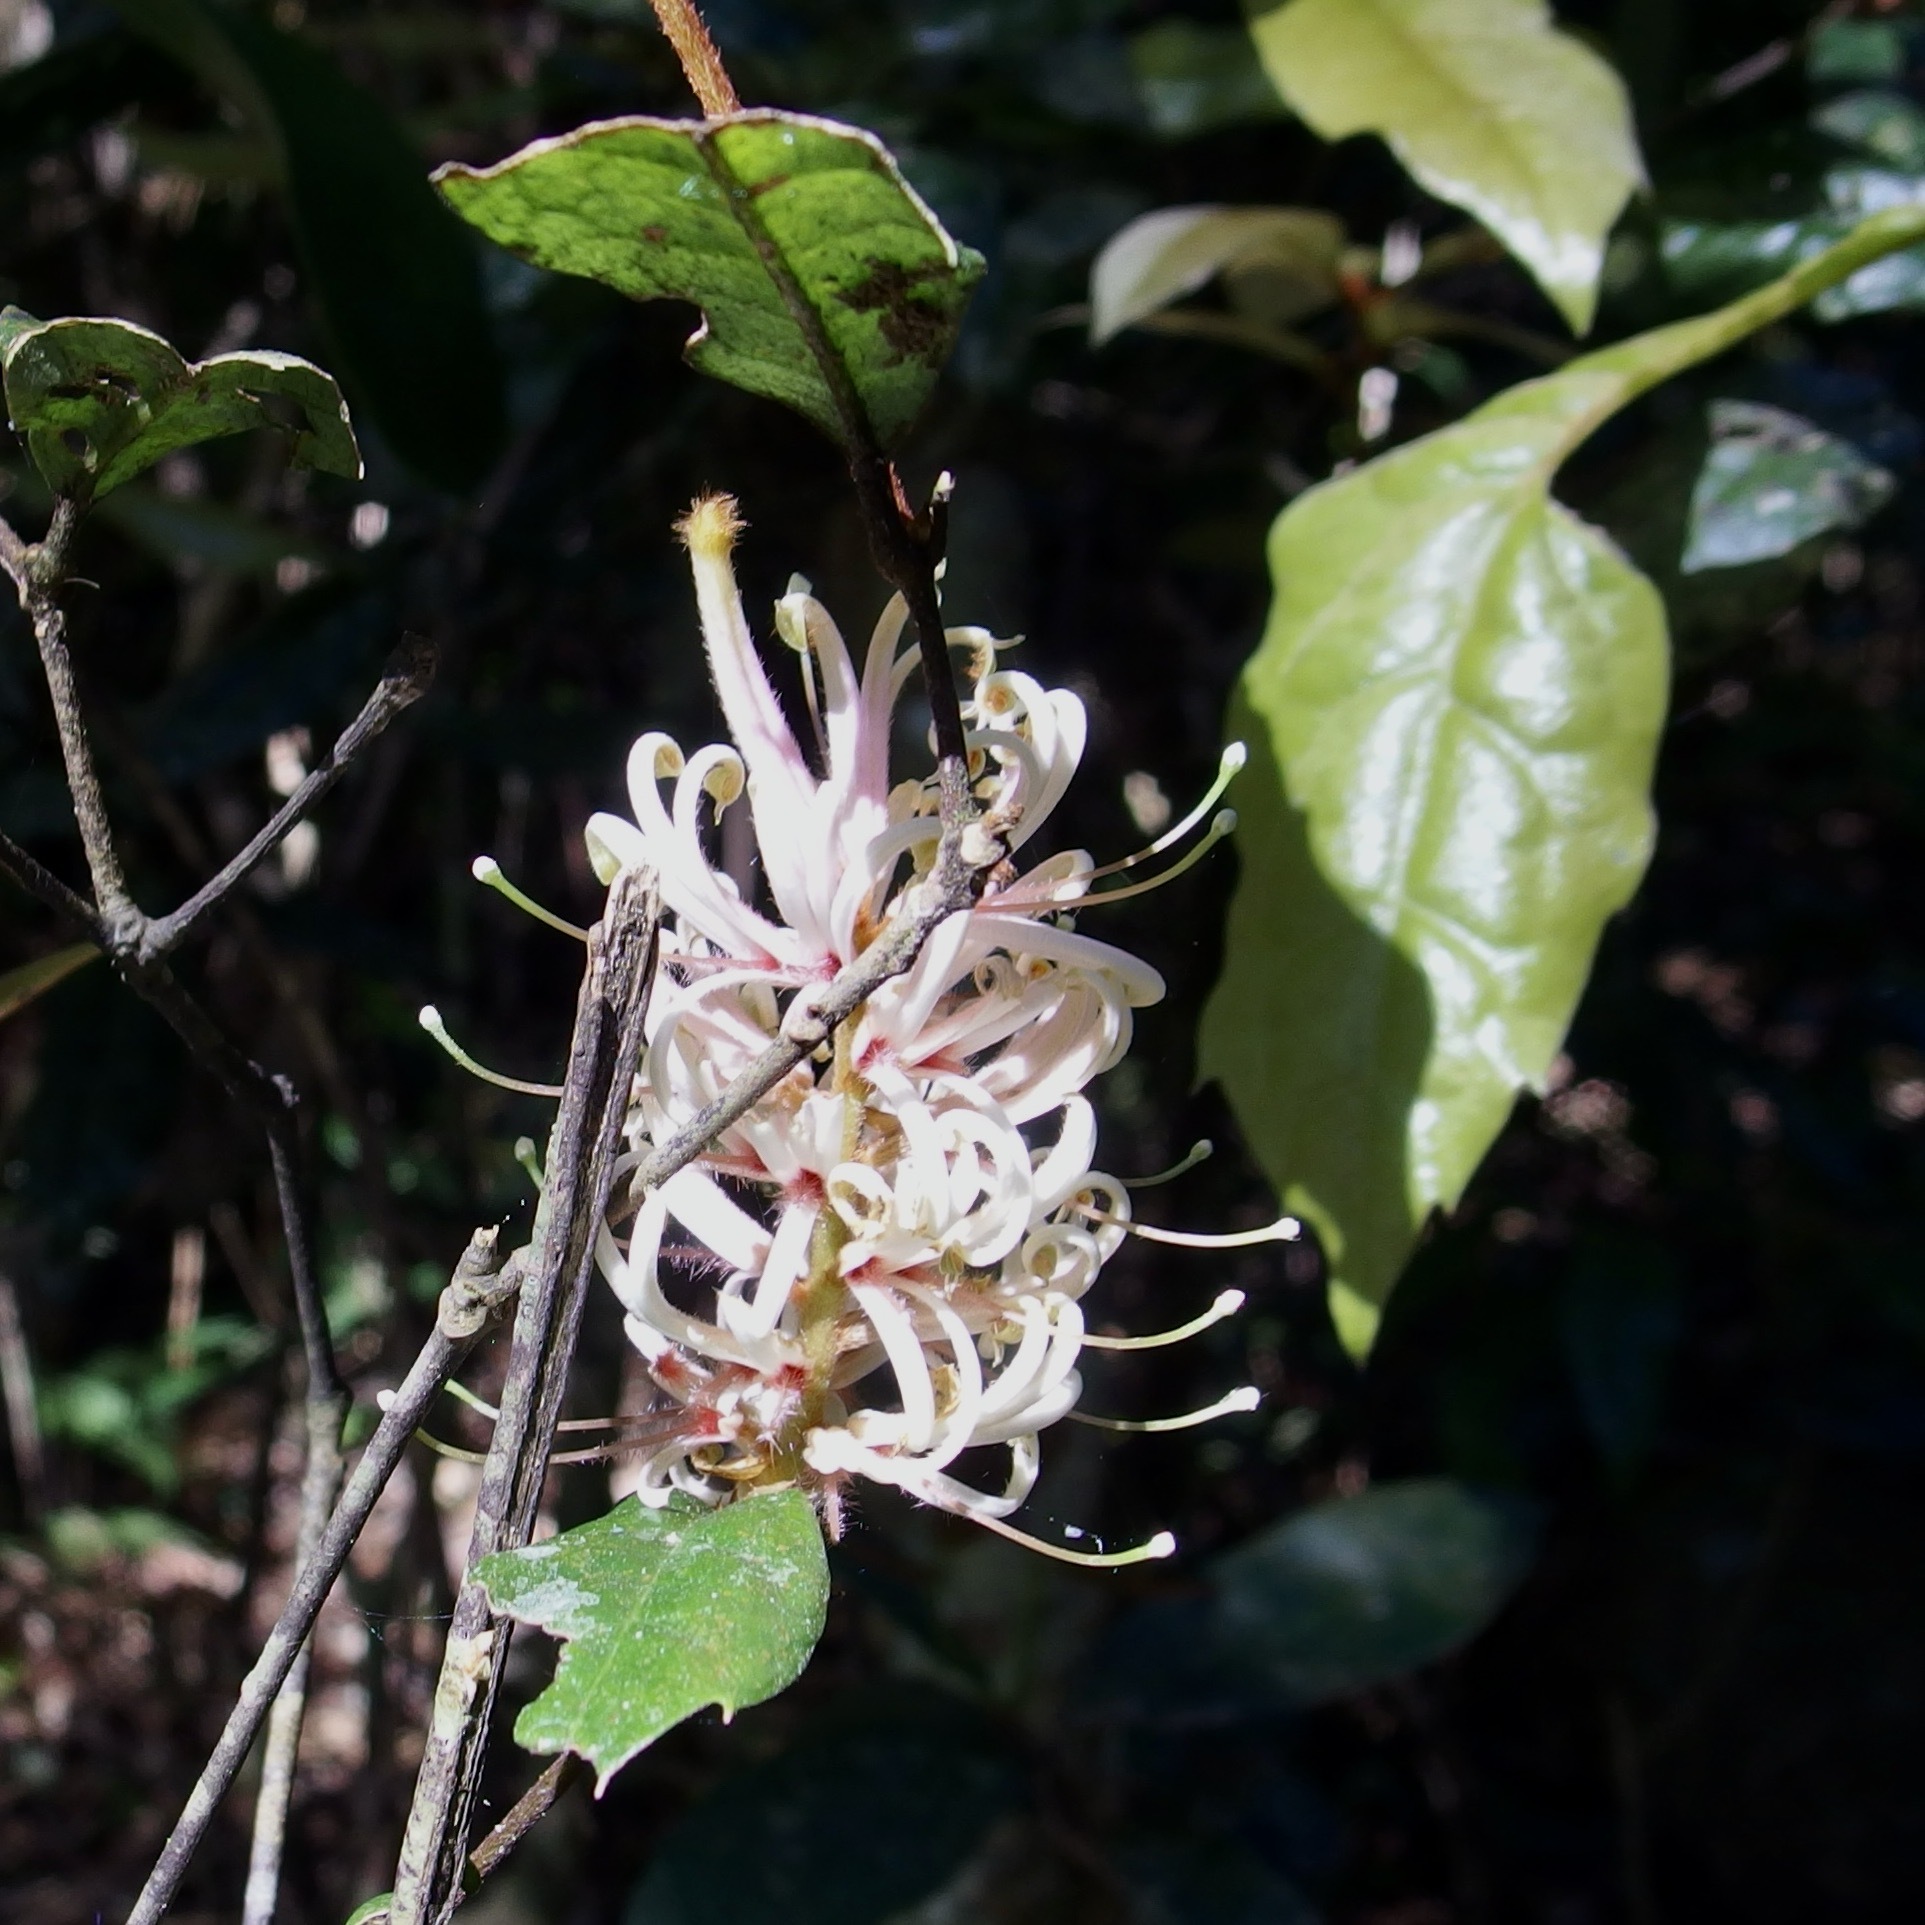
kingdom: Plantae
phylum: Tracheophyta
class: Magnoliopsida
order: Proteales
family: Proteaceae
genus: Triunia
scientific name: Triunia youngiana
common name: Rednut
